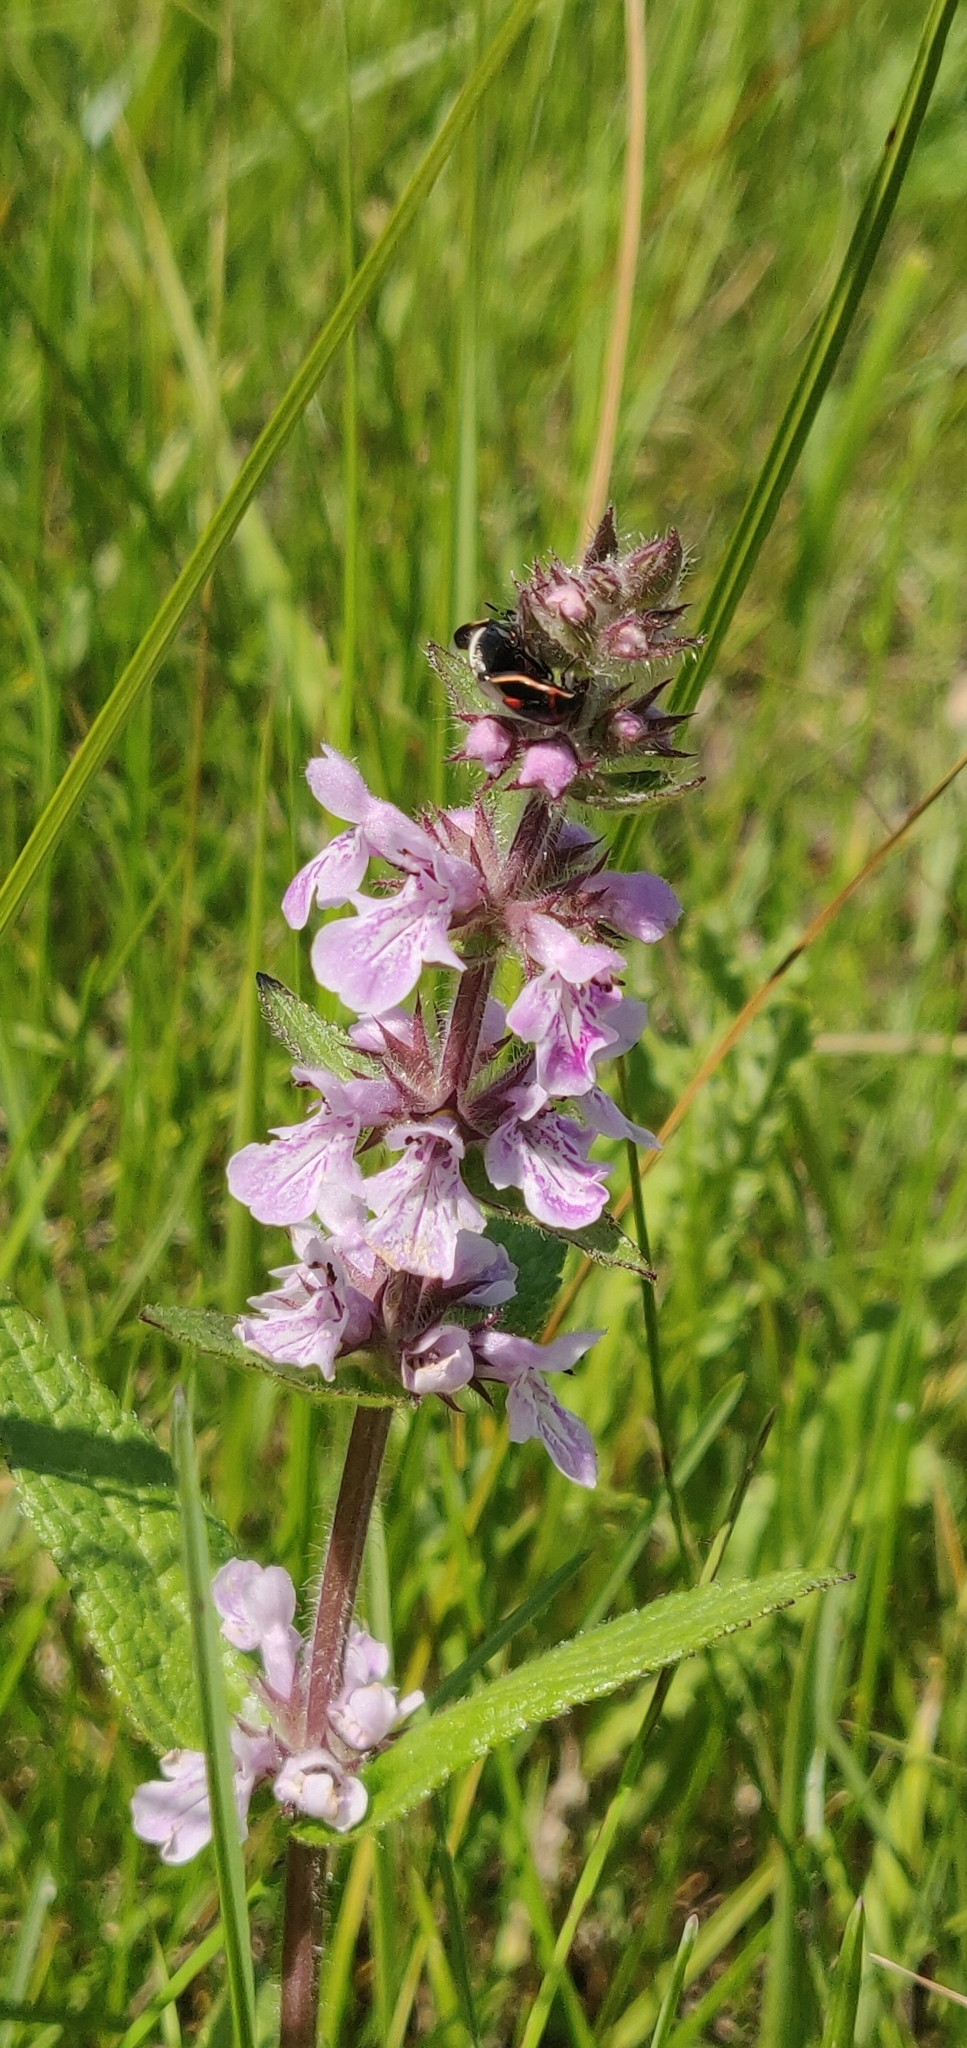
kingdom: Plantae
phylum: Tracheophyta
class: Magnoliopsida
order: Lamiales
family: Lamiaceae
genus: Stachys
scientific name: Stachys pilosa
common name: Hairy hedge-nettle
